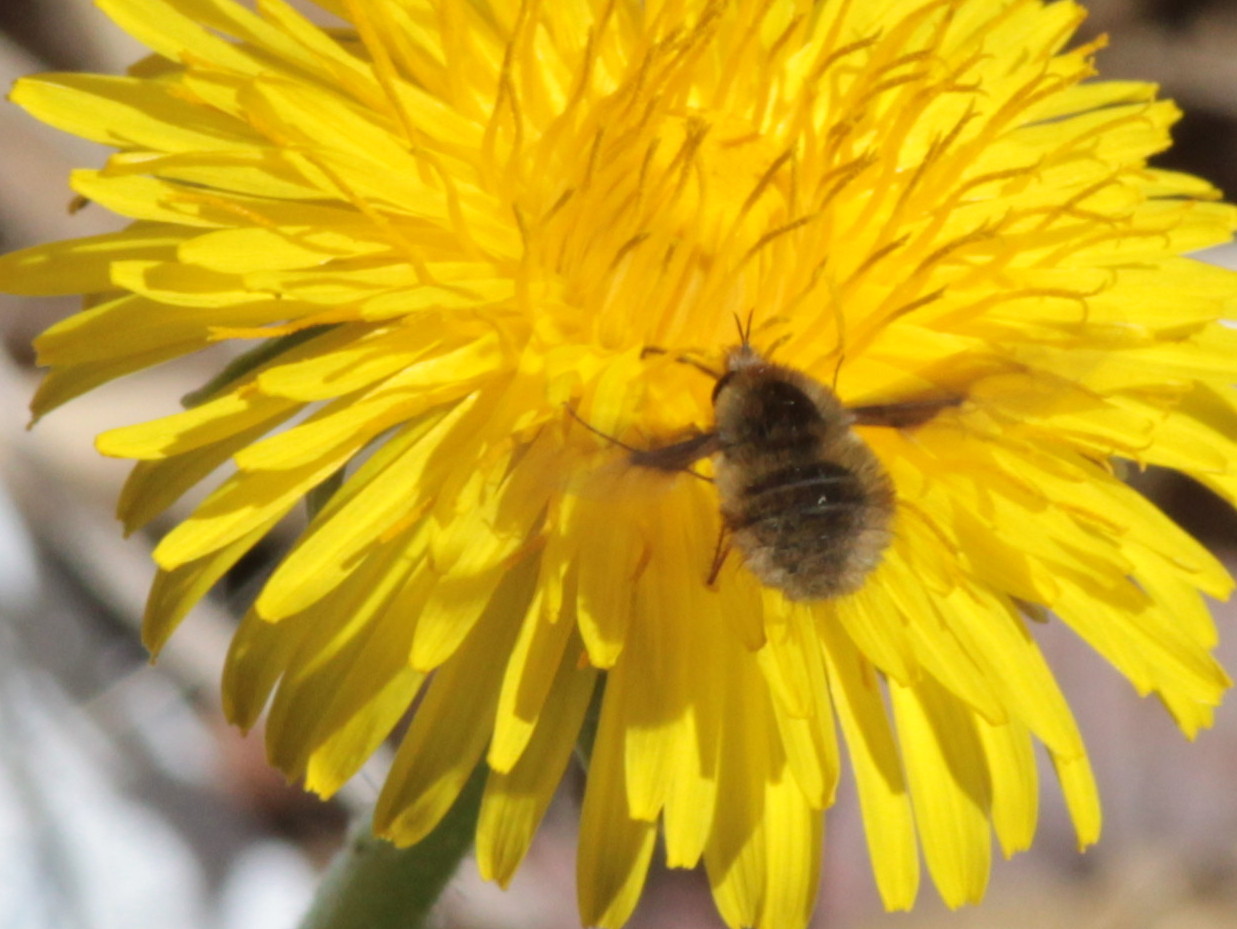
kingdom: Animalia
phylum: Arthropoda
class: Insecta
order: Diptera
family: Bombyliidae
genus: Bombylius
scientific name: Bombylius major
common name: Bee fly
